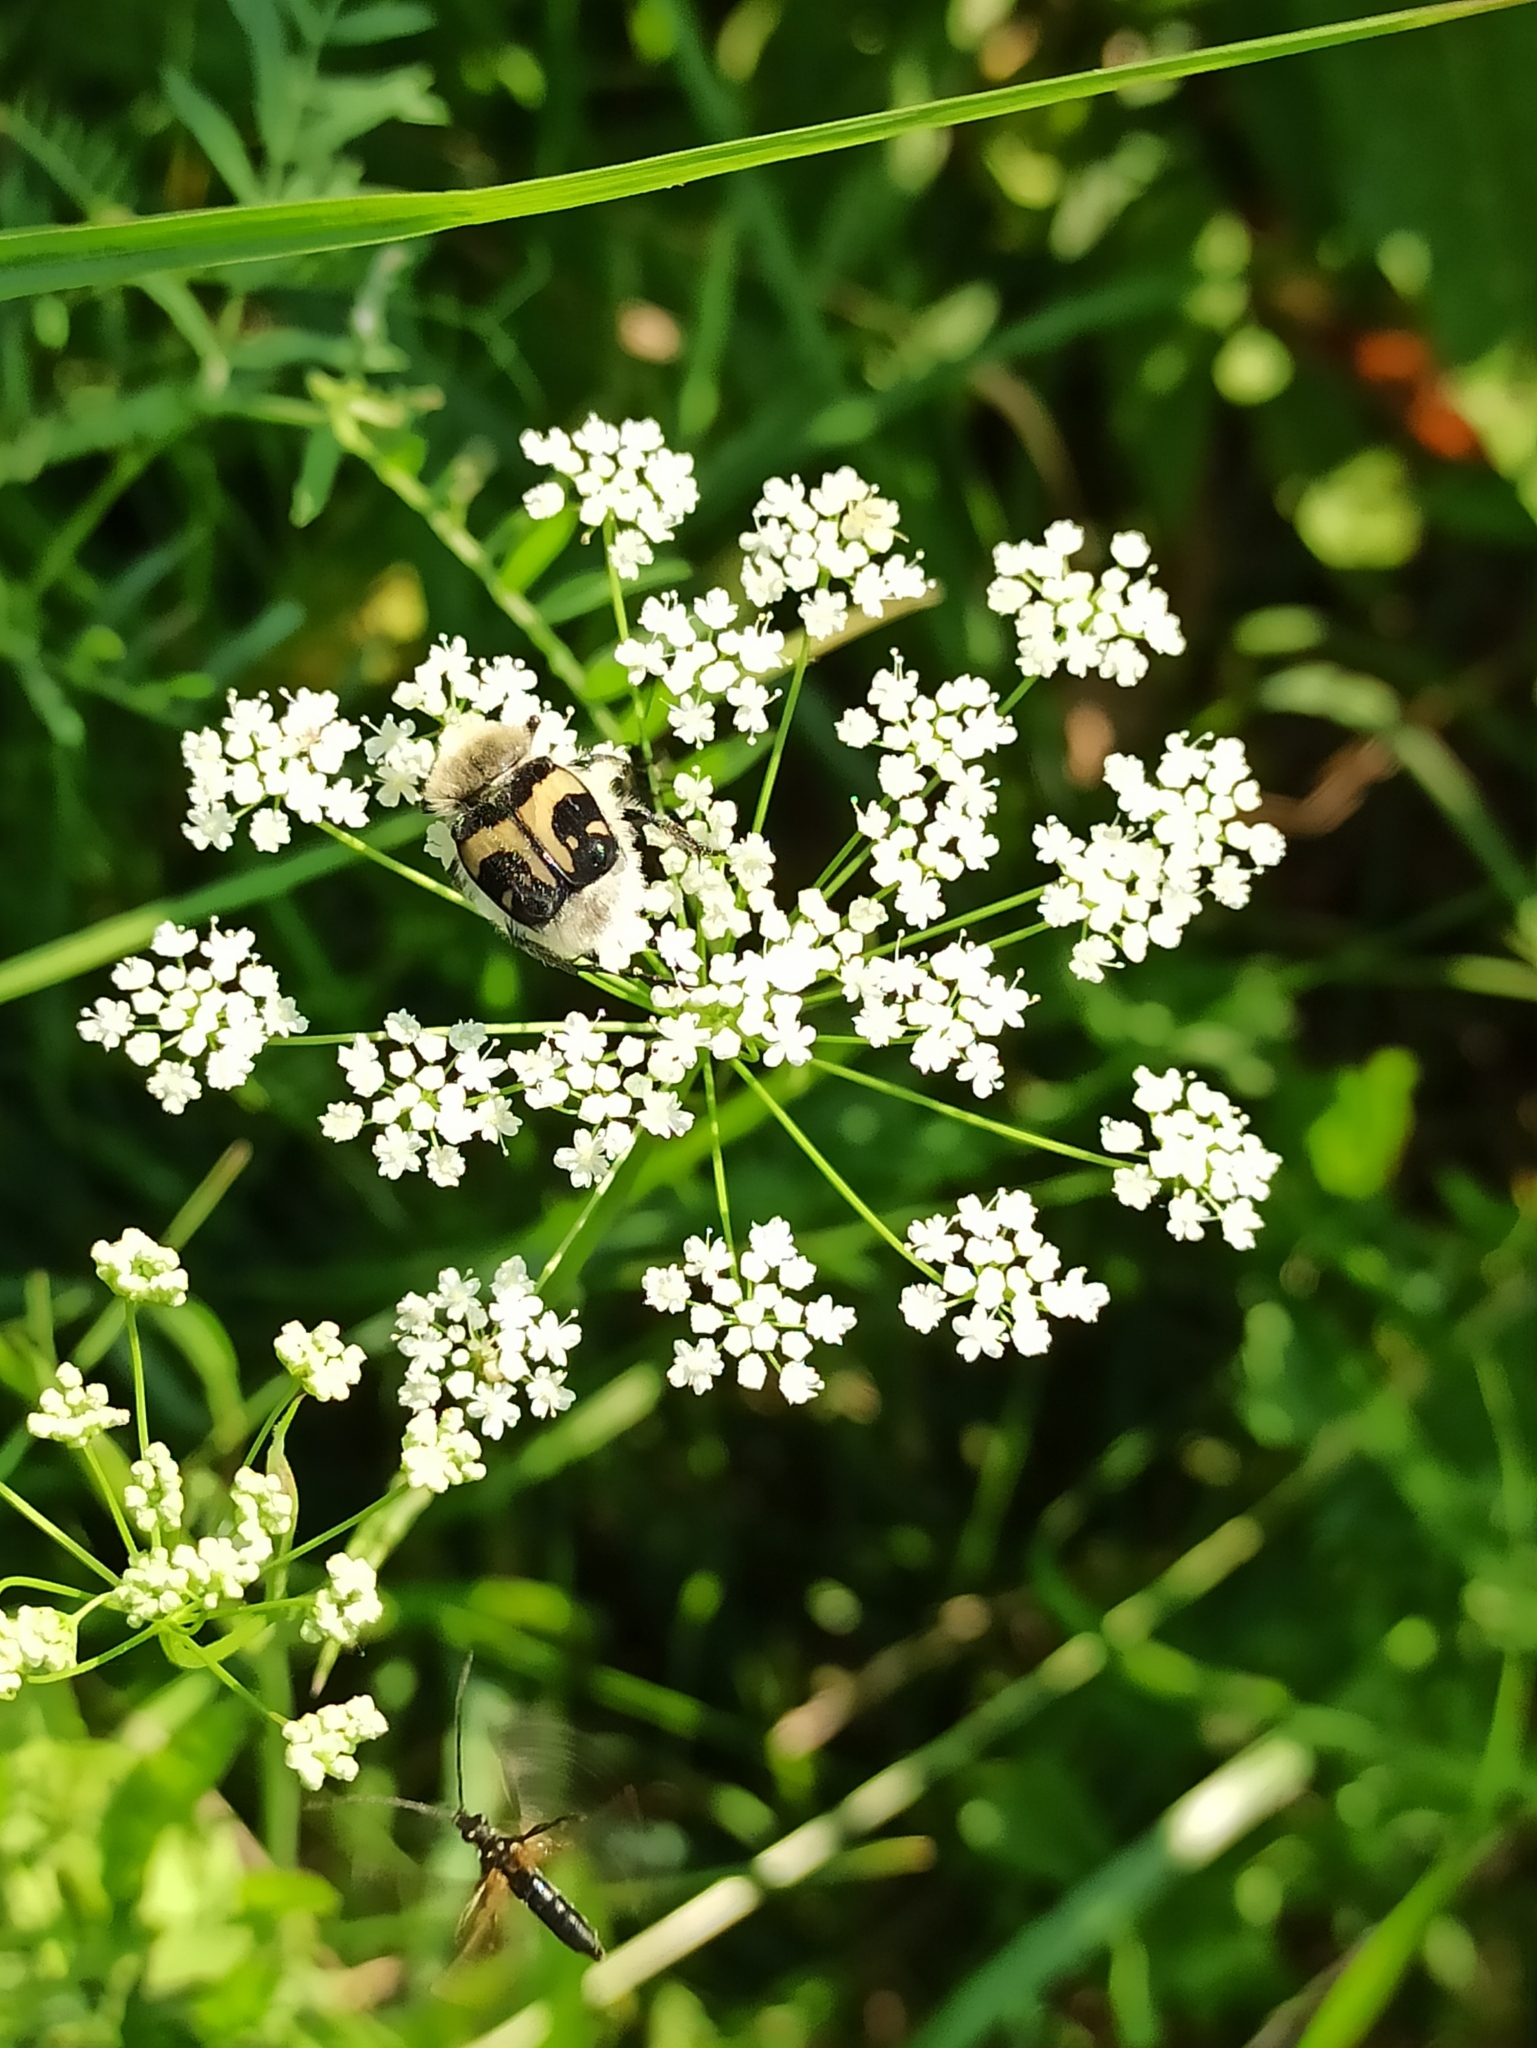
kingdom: Animalia
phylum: Arthropoda
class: Insecta
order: Coleoptera
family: Scarabaeidae
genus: Trichius
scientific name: Trichius fasciatus
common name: Bee beetle
